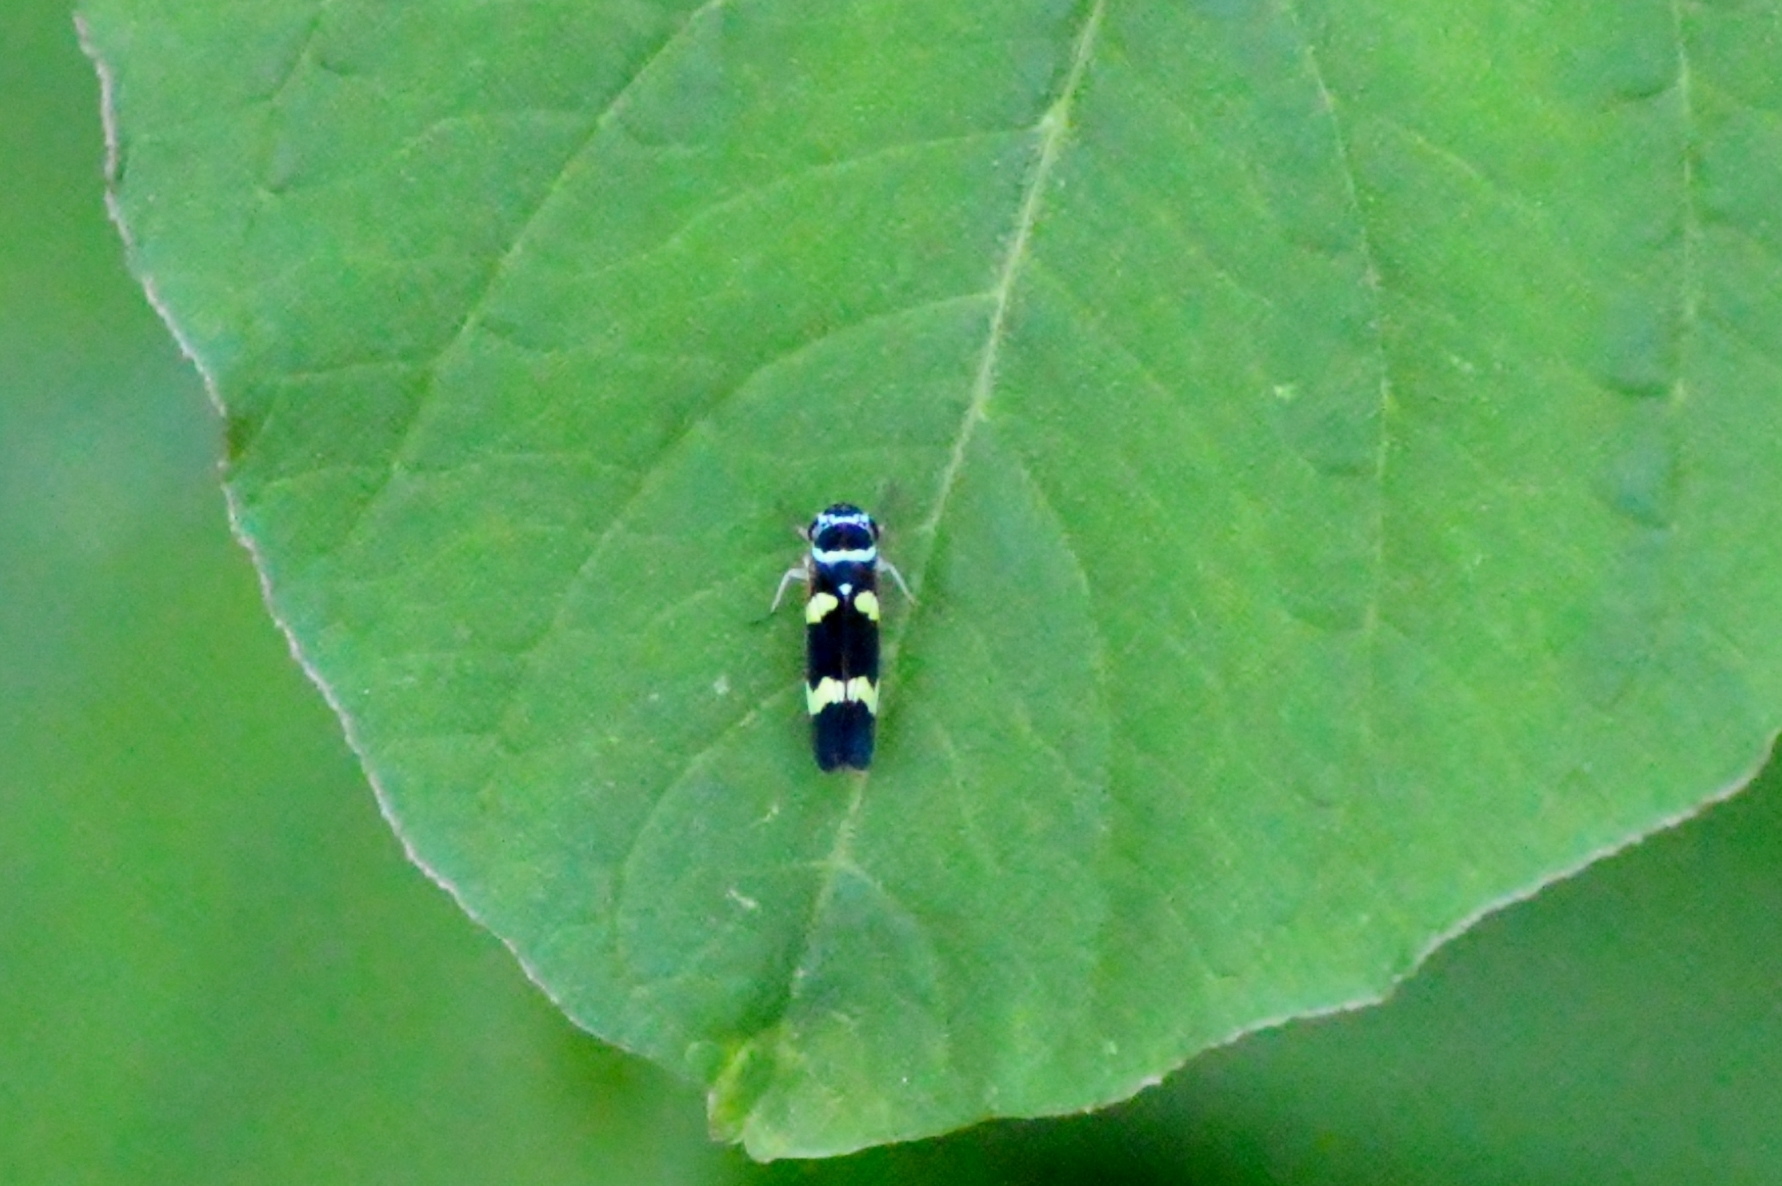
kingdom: Animalia
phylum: Arthropoda
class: Insecta
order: Hemiptera
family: Cicadellidae
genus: Macugonalia
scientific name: Macugonalia leucomelas
